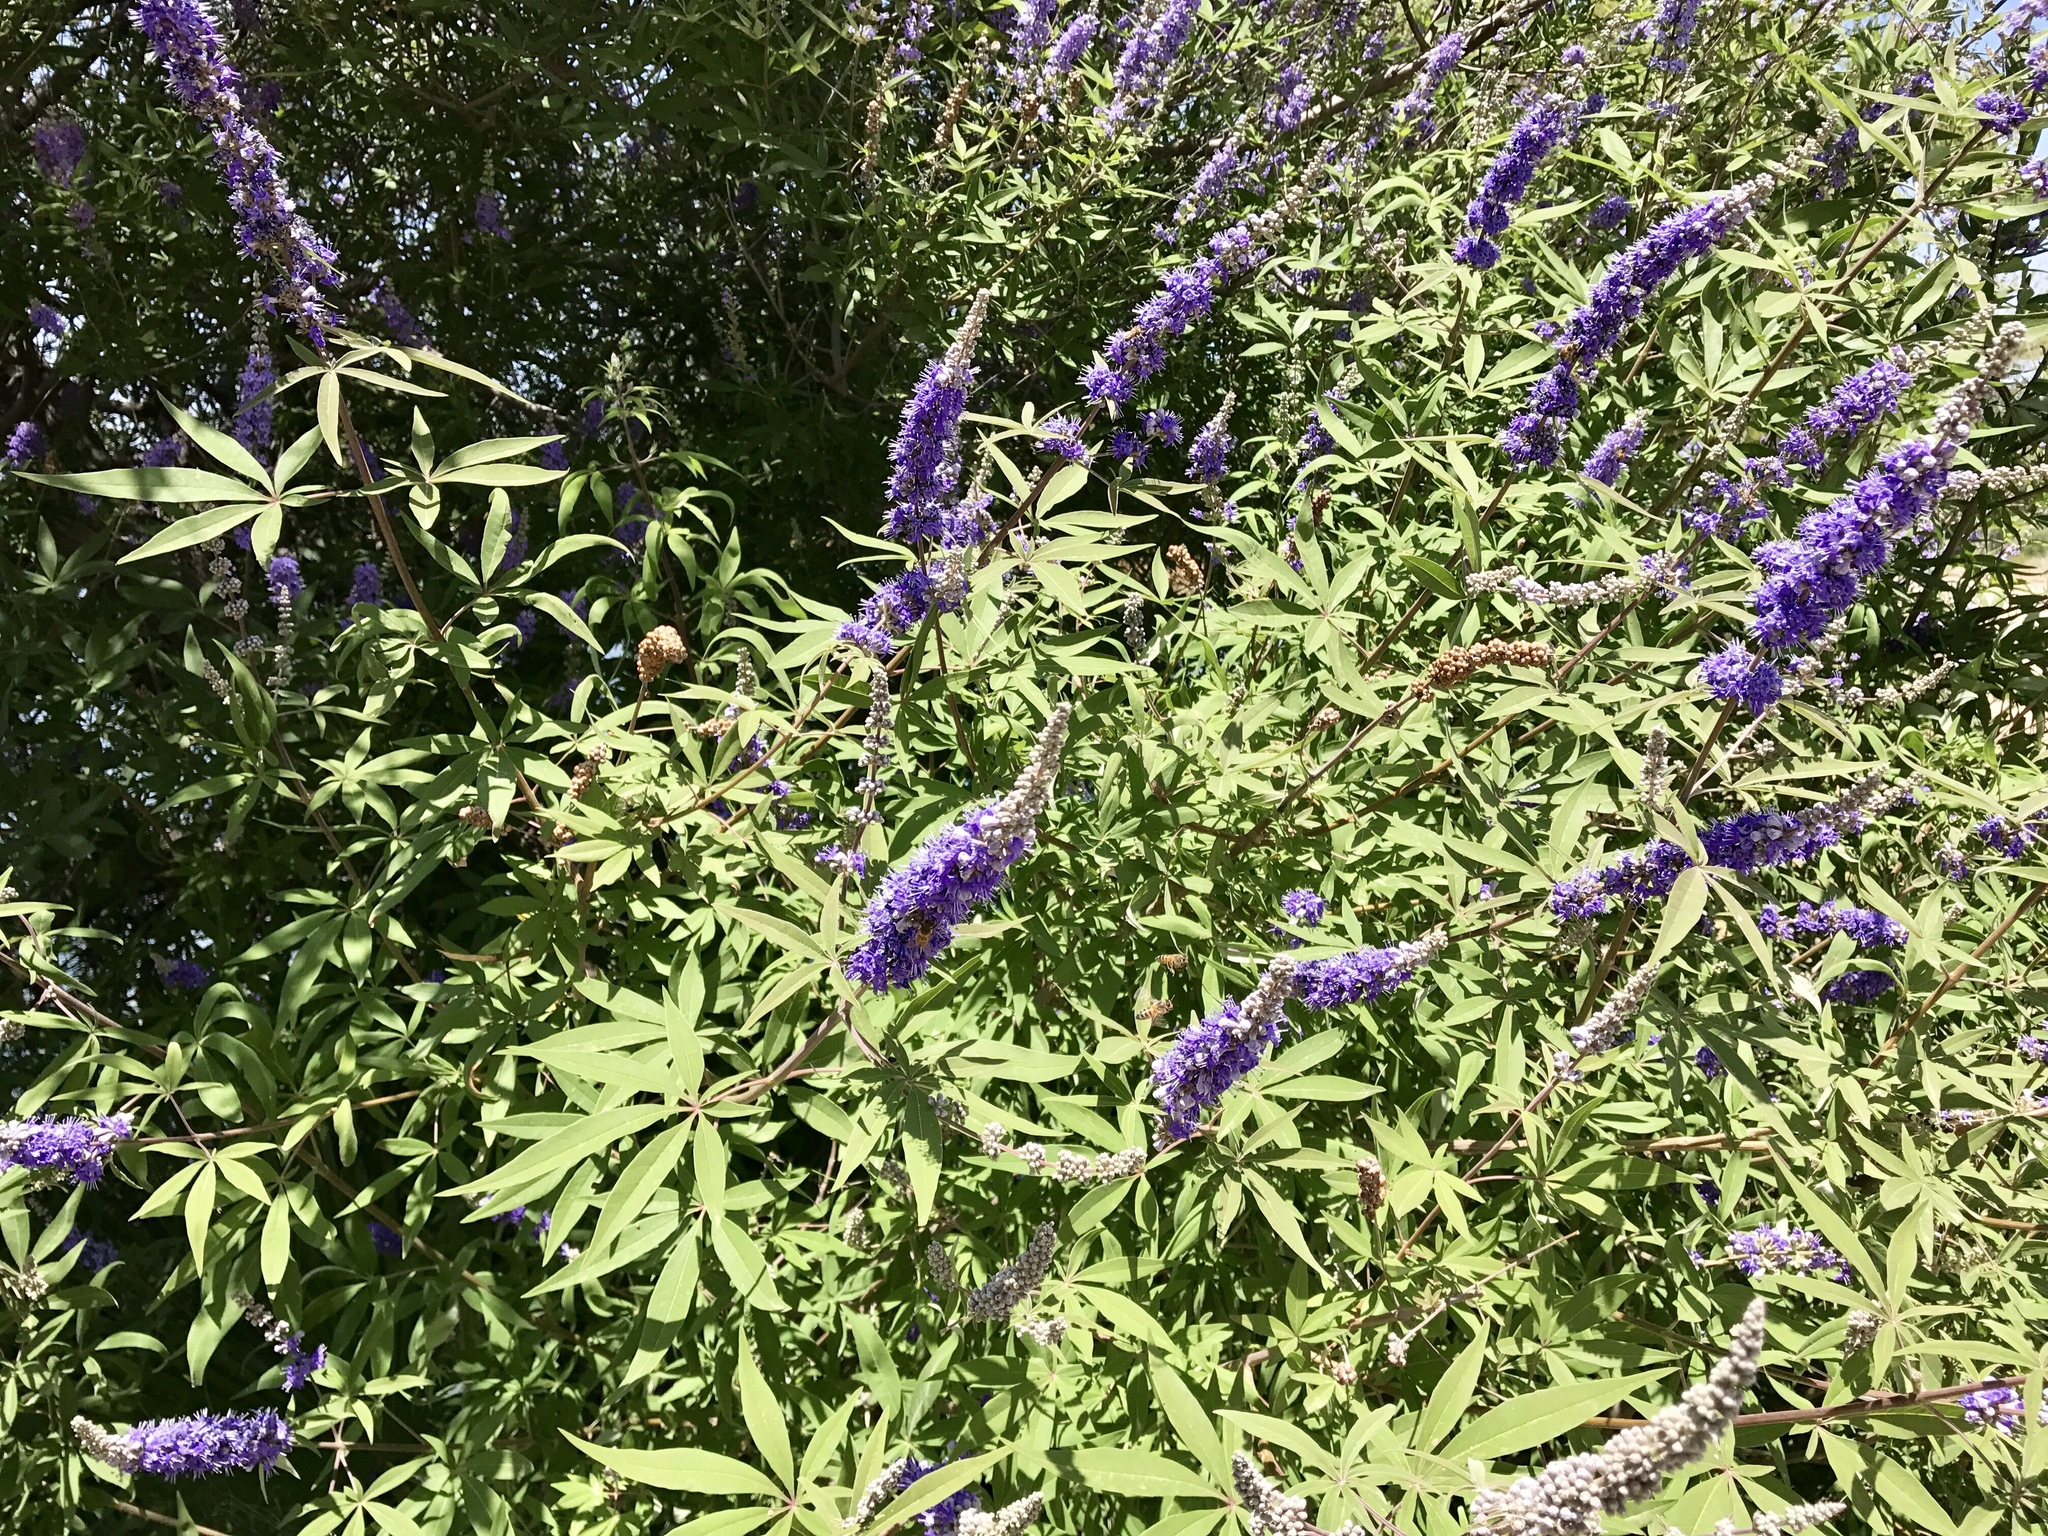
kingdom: Plantae
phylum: Tracheophyta
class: Magnoliopsida
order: Lamiales
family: Lamiaceae
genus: Vitex
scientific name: Vitex agnus-castus
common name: Chasteberry
